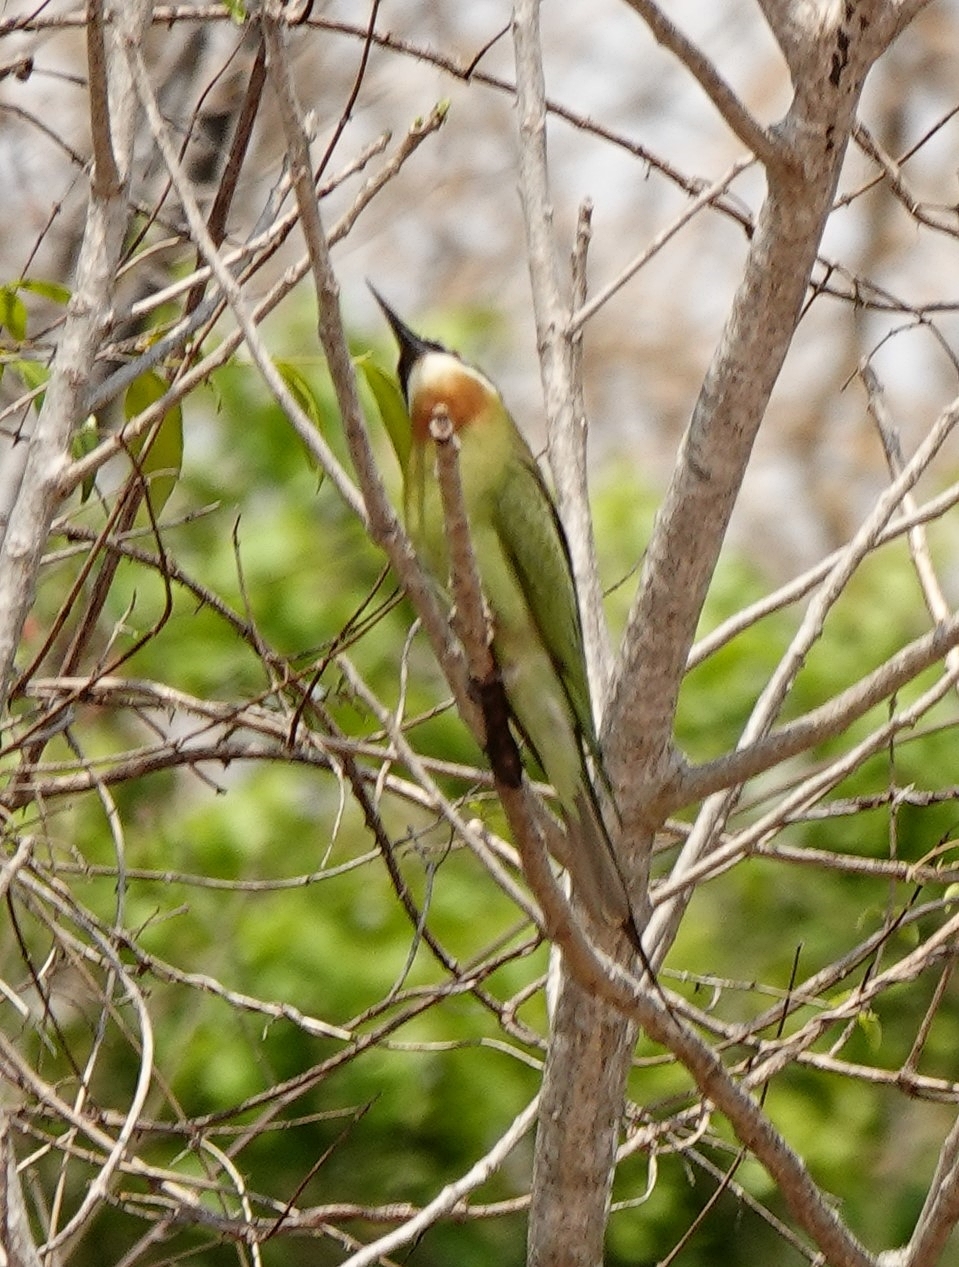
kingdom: Animalia
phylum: Chordata
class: Aves
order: Coraciiformes
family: Meropidae
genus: Merops
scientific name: Merops superciliosus
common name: Olive bee-eater
